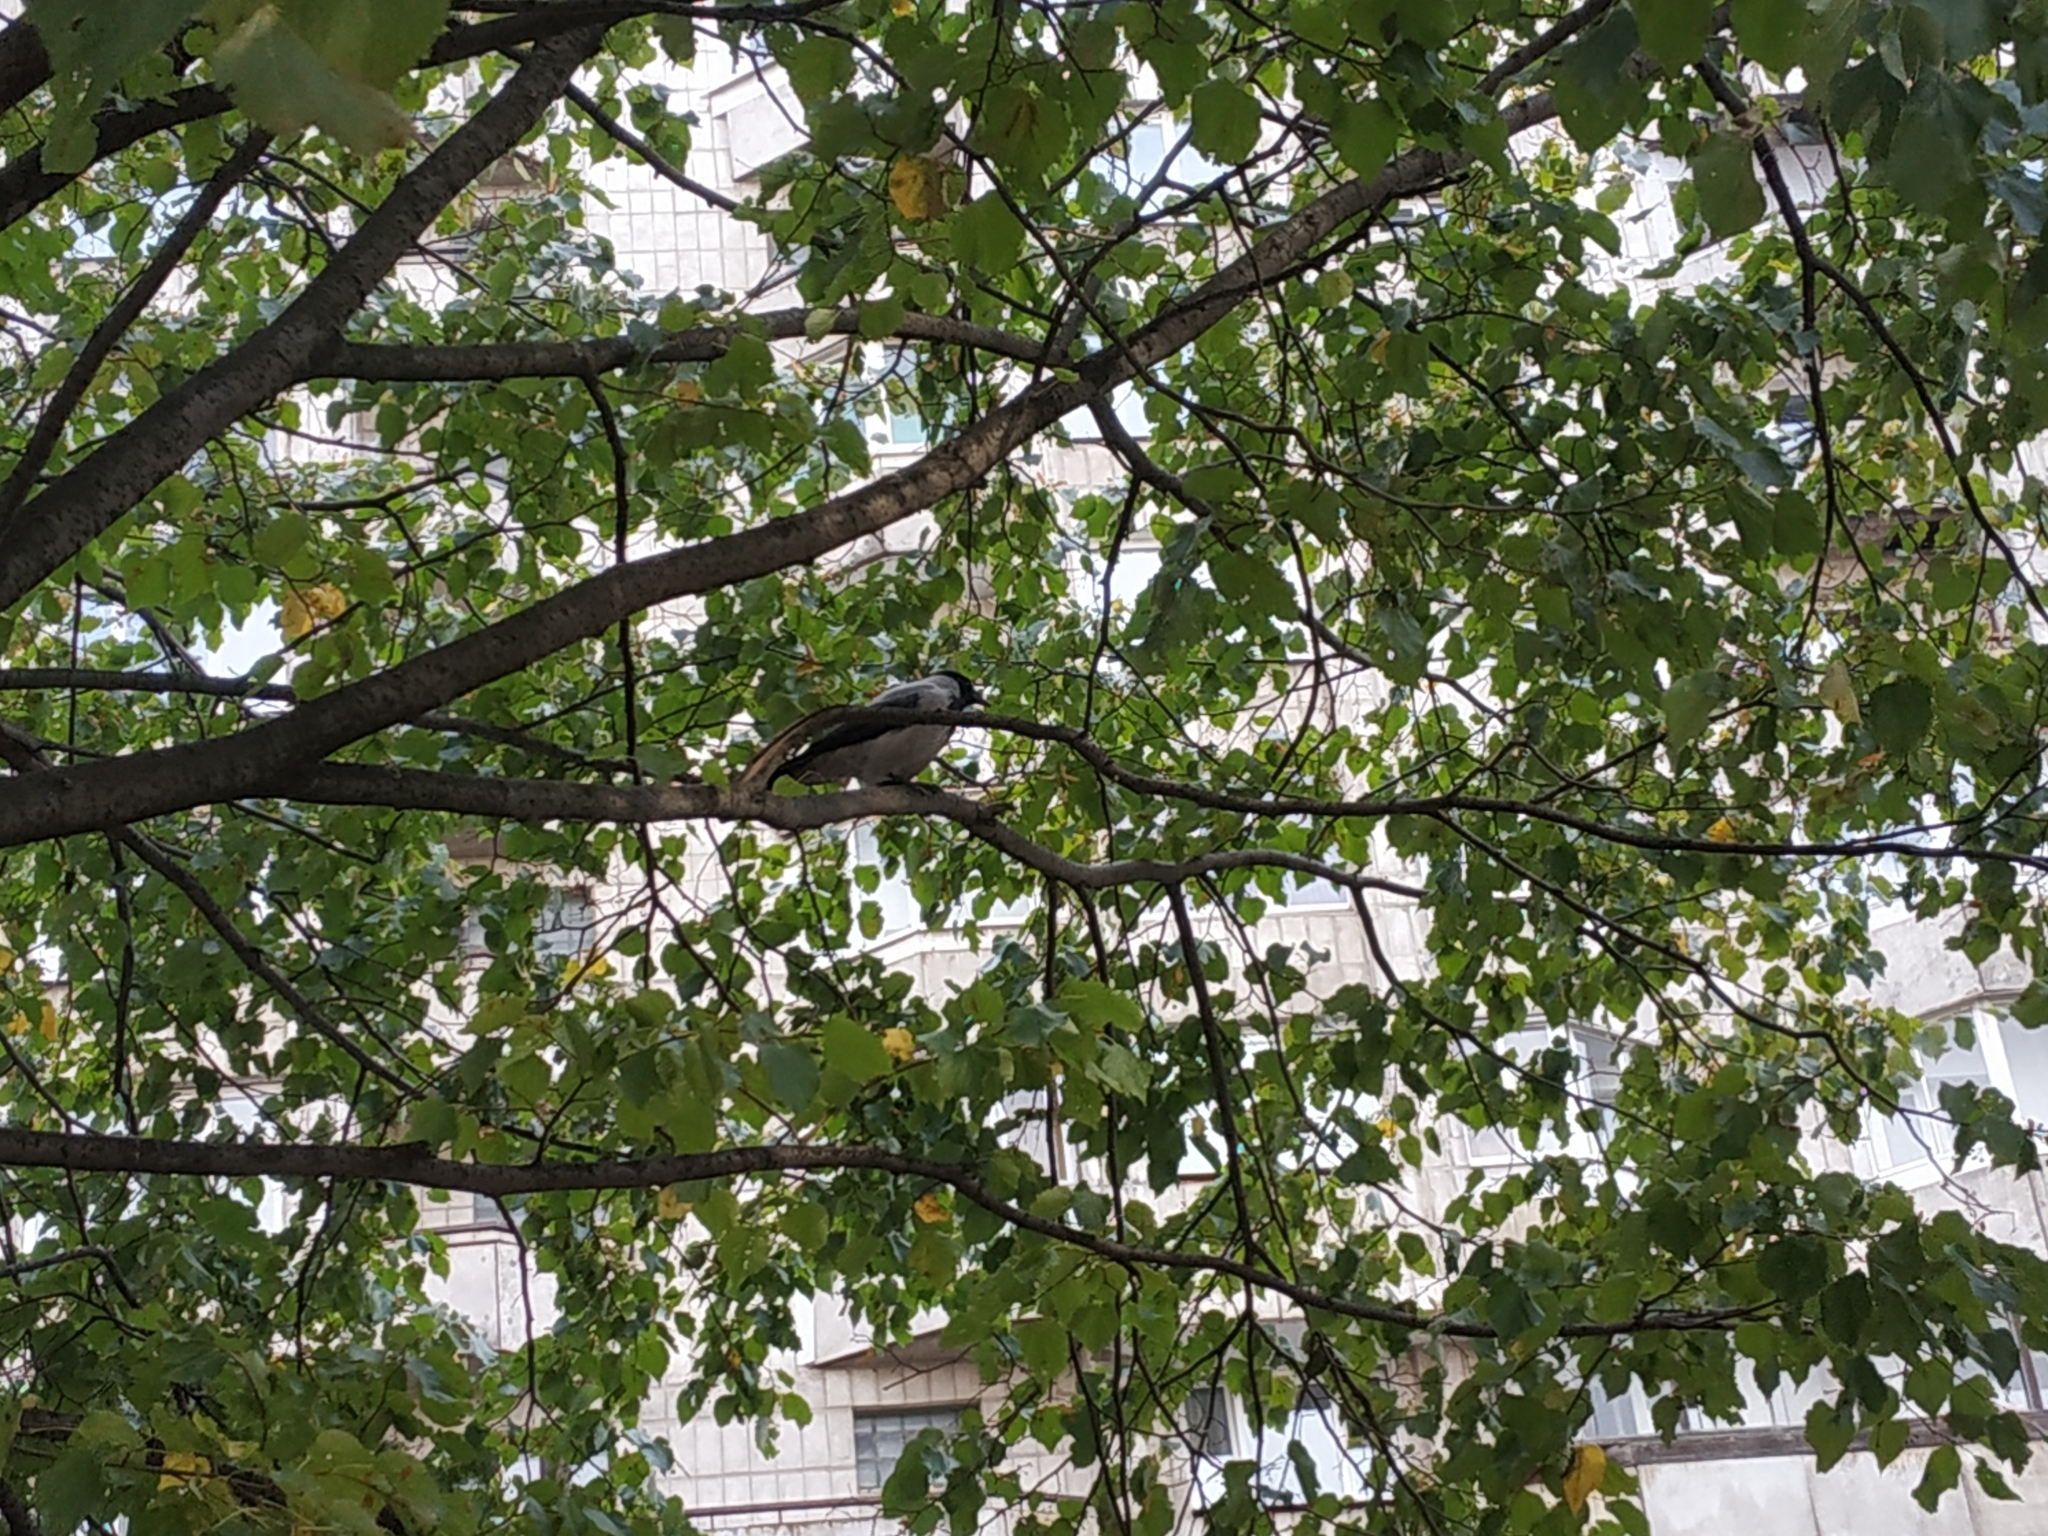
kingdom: Animalia
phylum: Chordata
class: Aves
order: Passeriformes
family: Corvidae
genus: Corvus
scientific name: Corvus cornix
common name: Hooded crow
